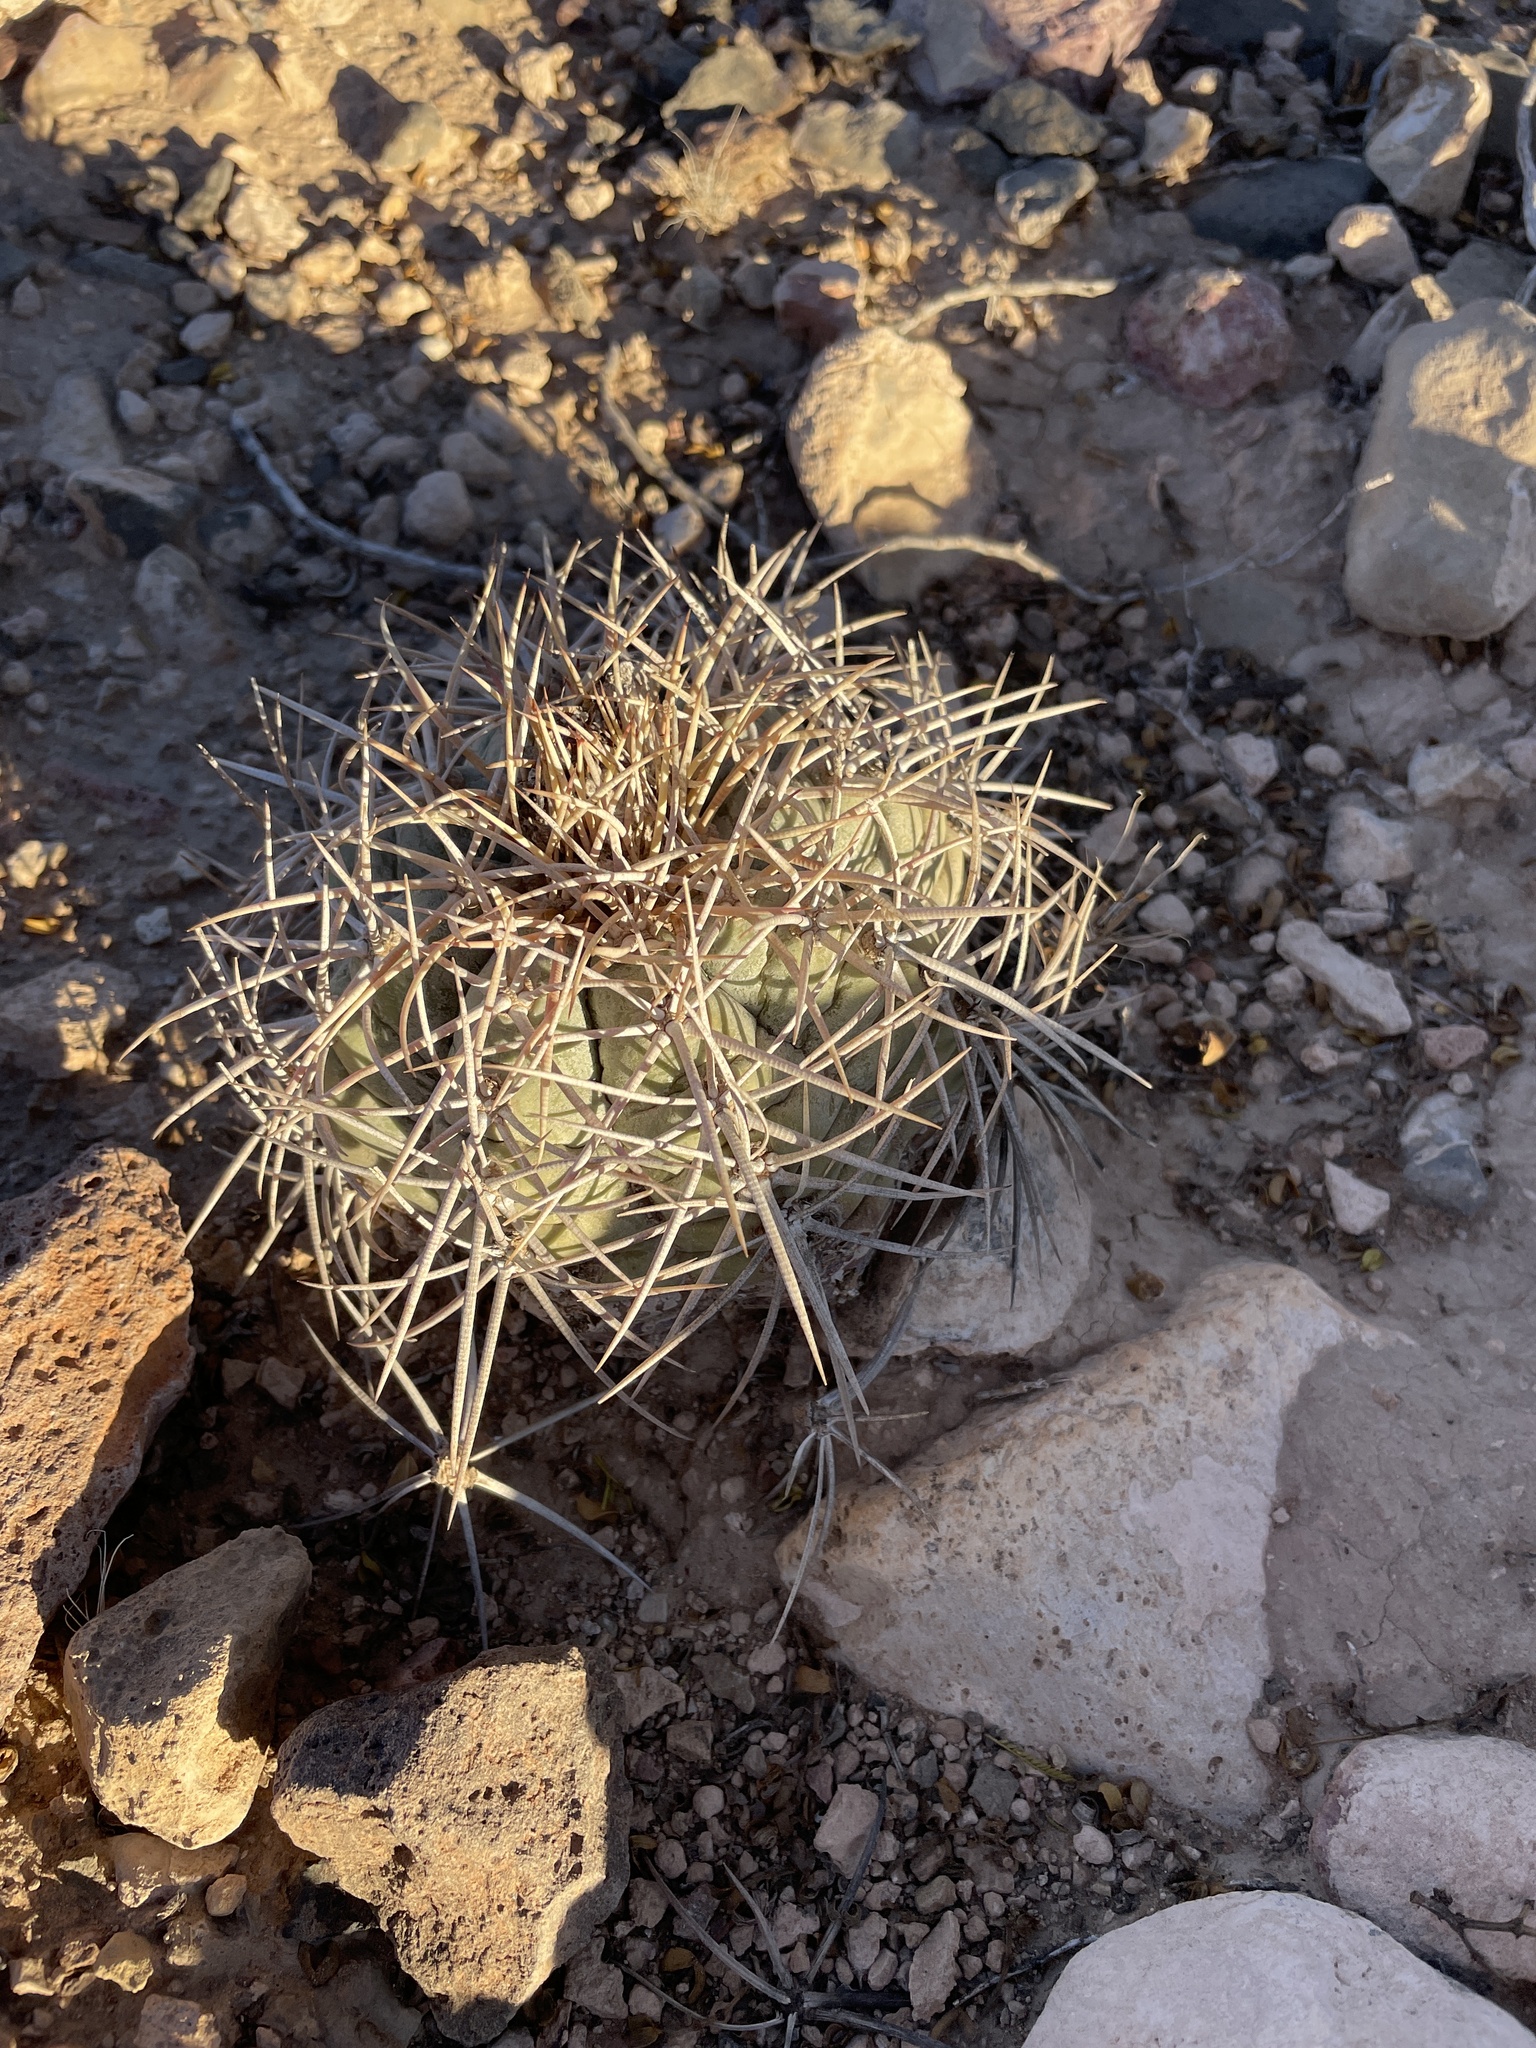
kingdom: Plantae
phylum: Tracheophyta
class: Magnoliopsida
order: Caryophyllales
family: Cactaceae
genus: Echinocactus
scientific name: Echinocactus horizonthalonius
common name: Devilshead
